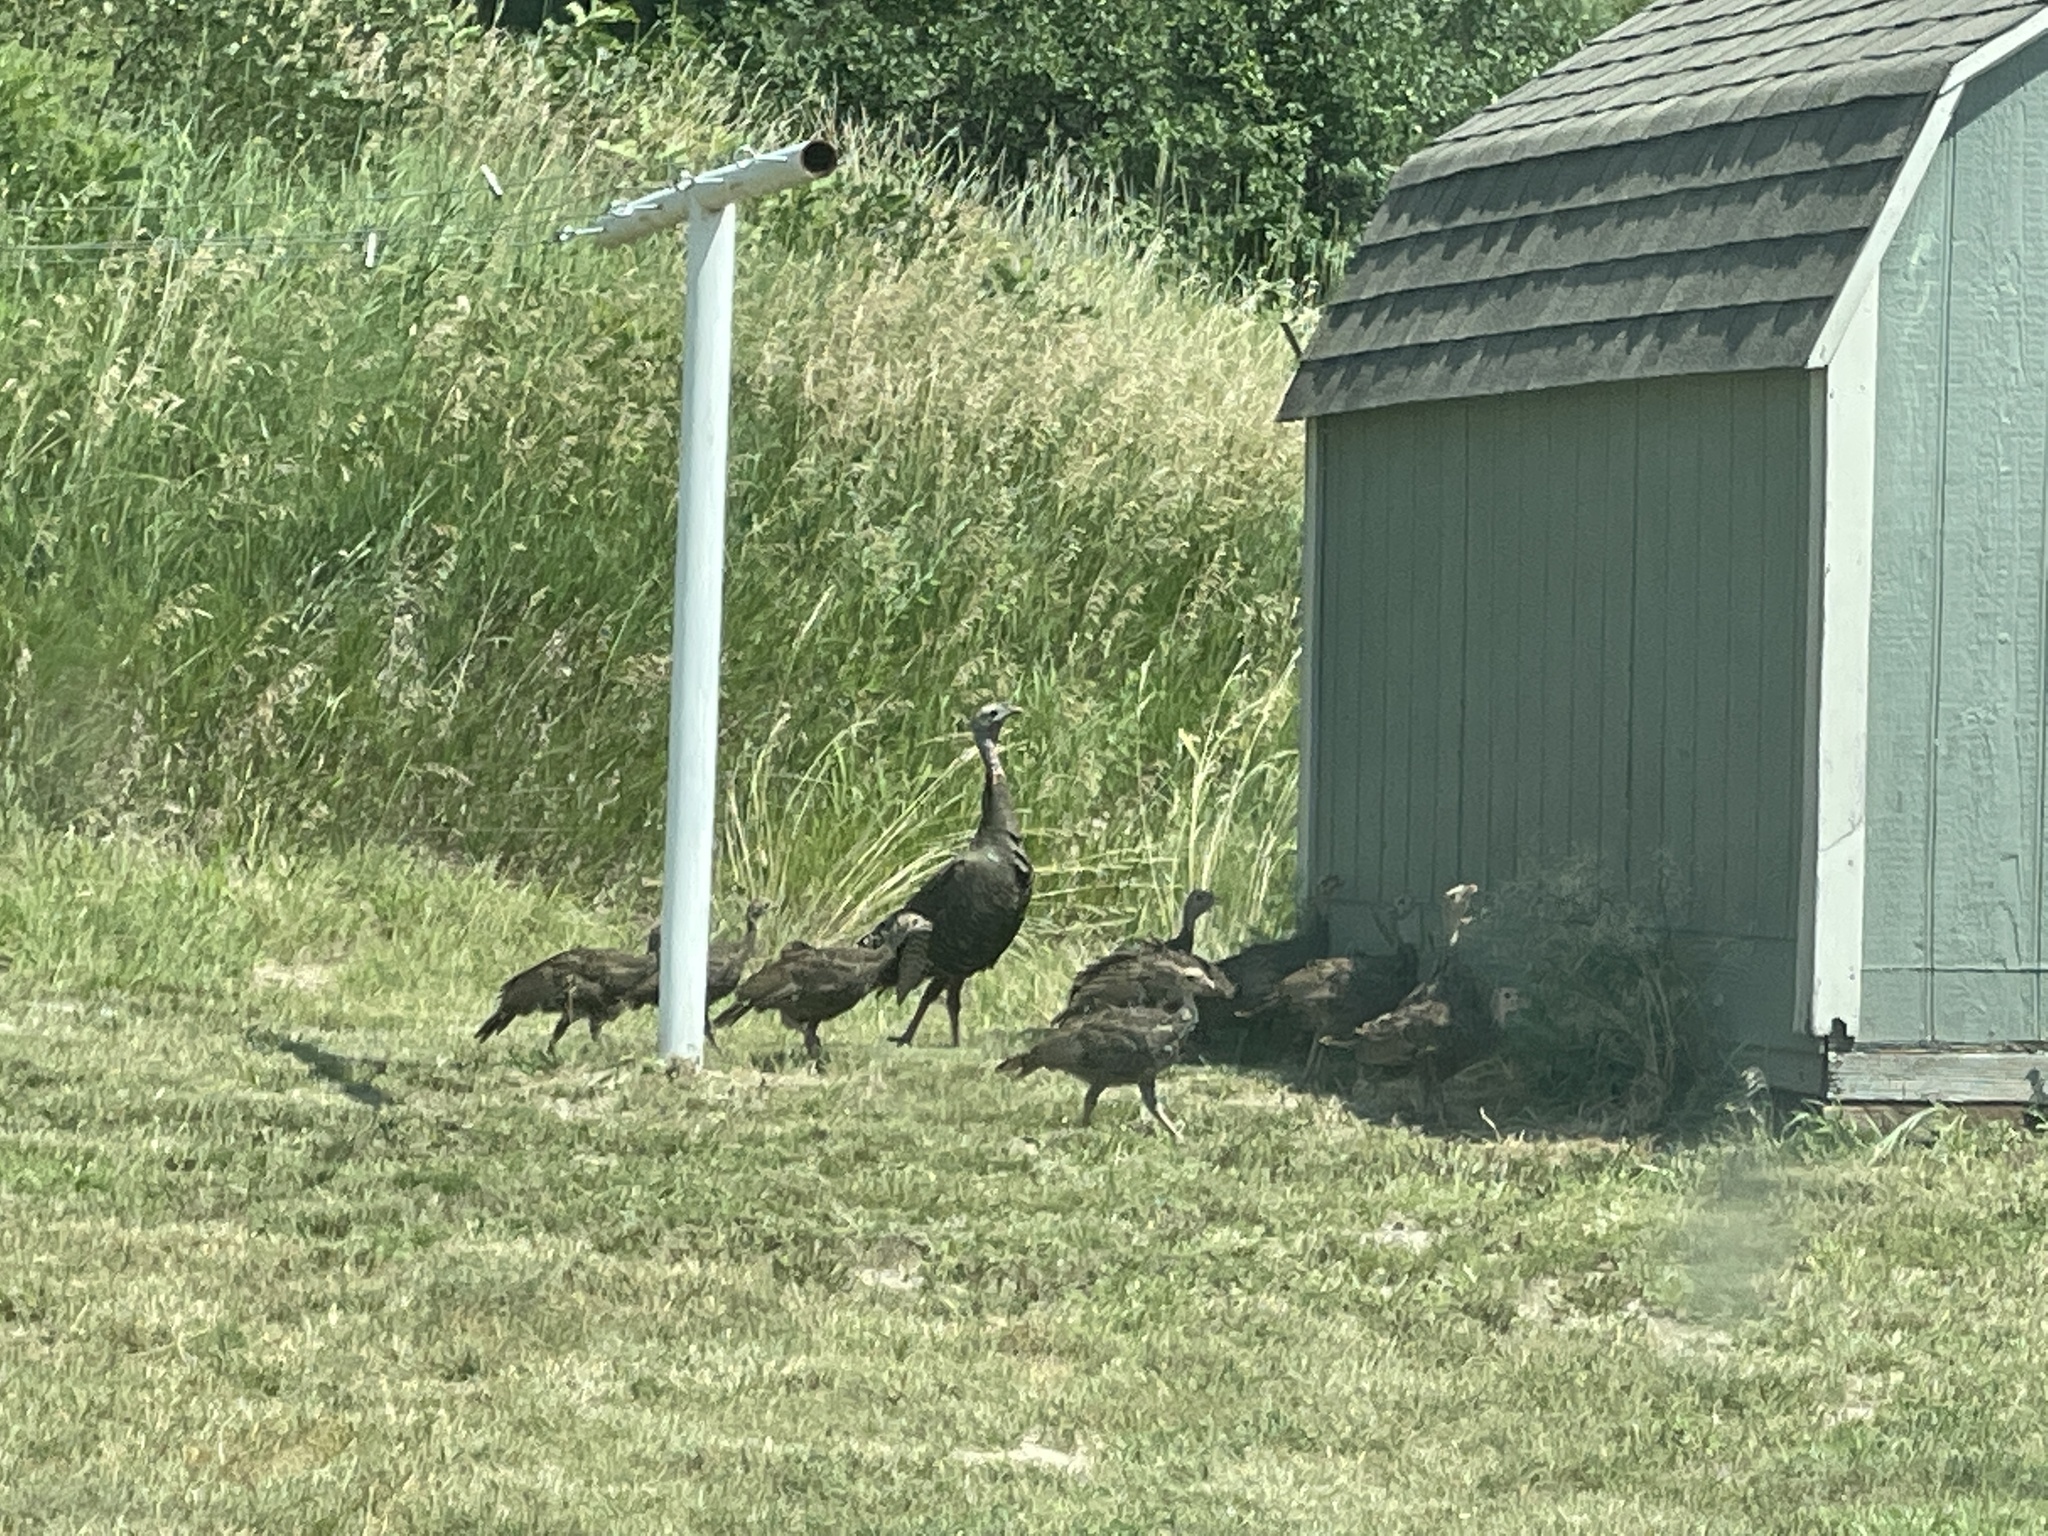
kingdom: Animalia
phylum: Chordata
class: Aves
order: Galliformes
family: Phasianidae
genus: Meleagris
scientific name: Meleagris gallopavo
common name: Wild turkey
